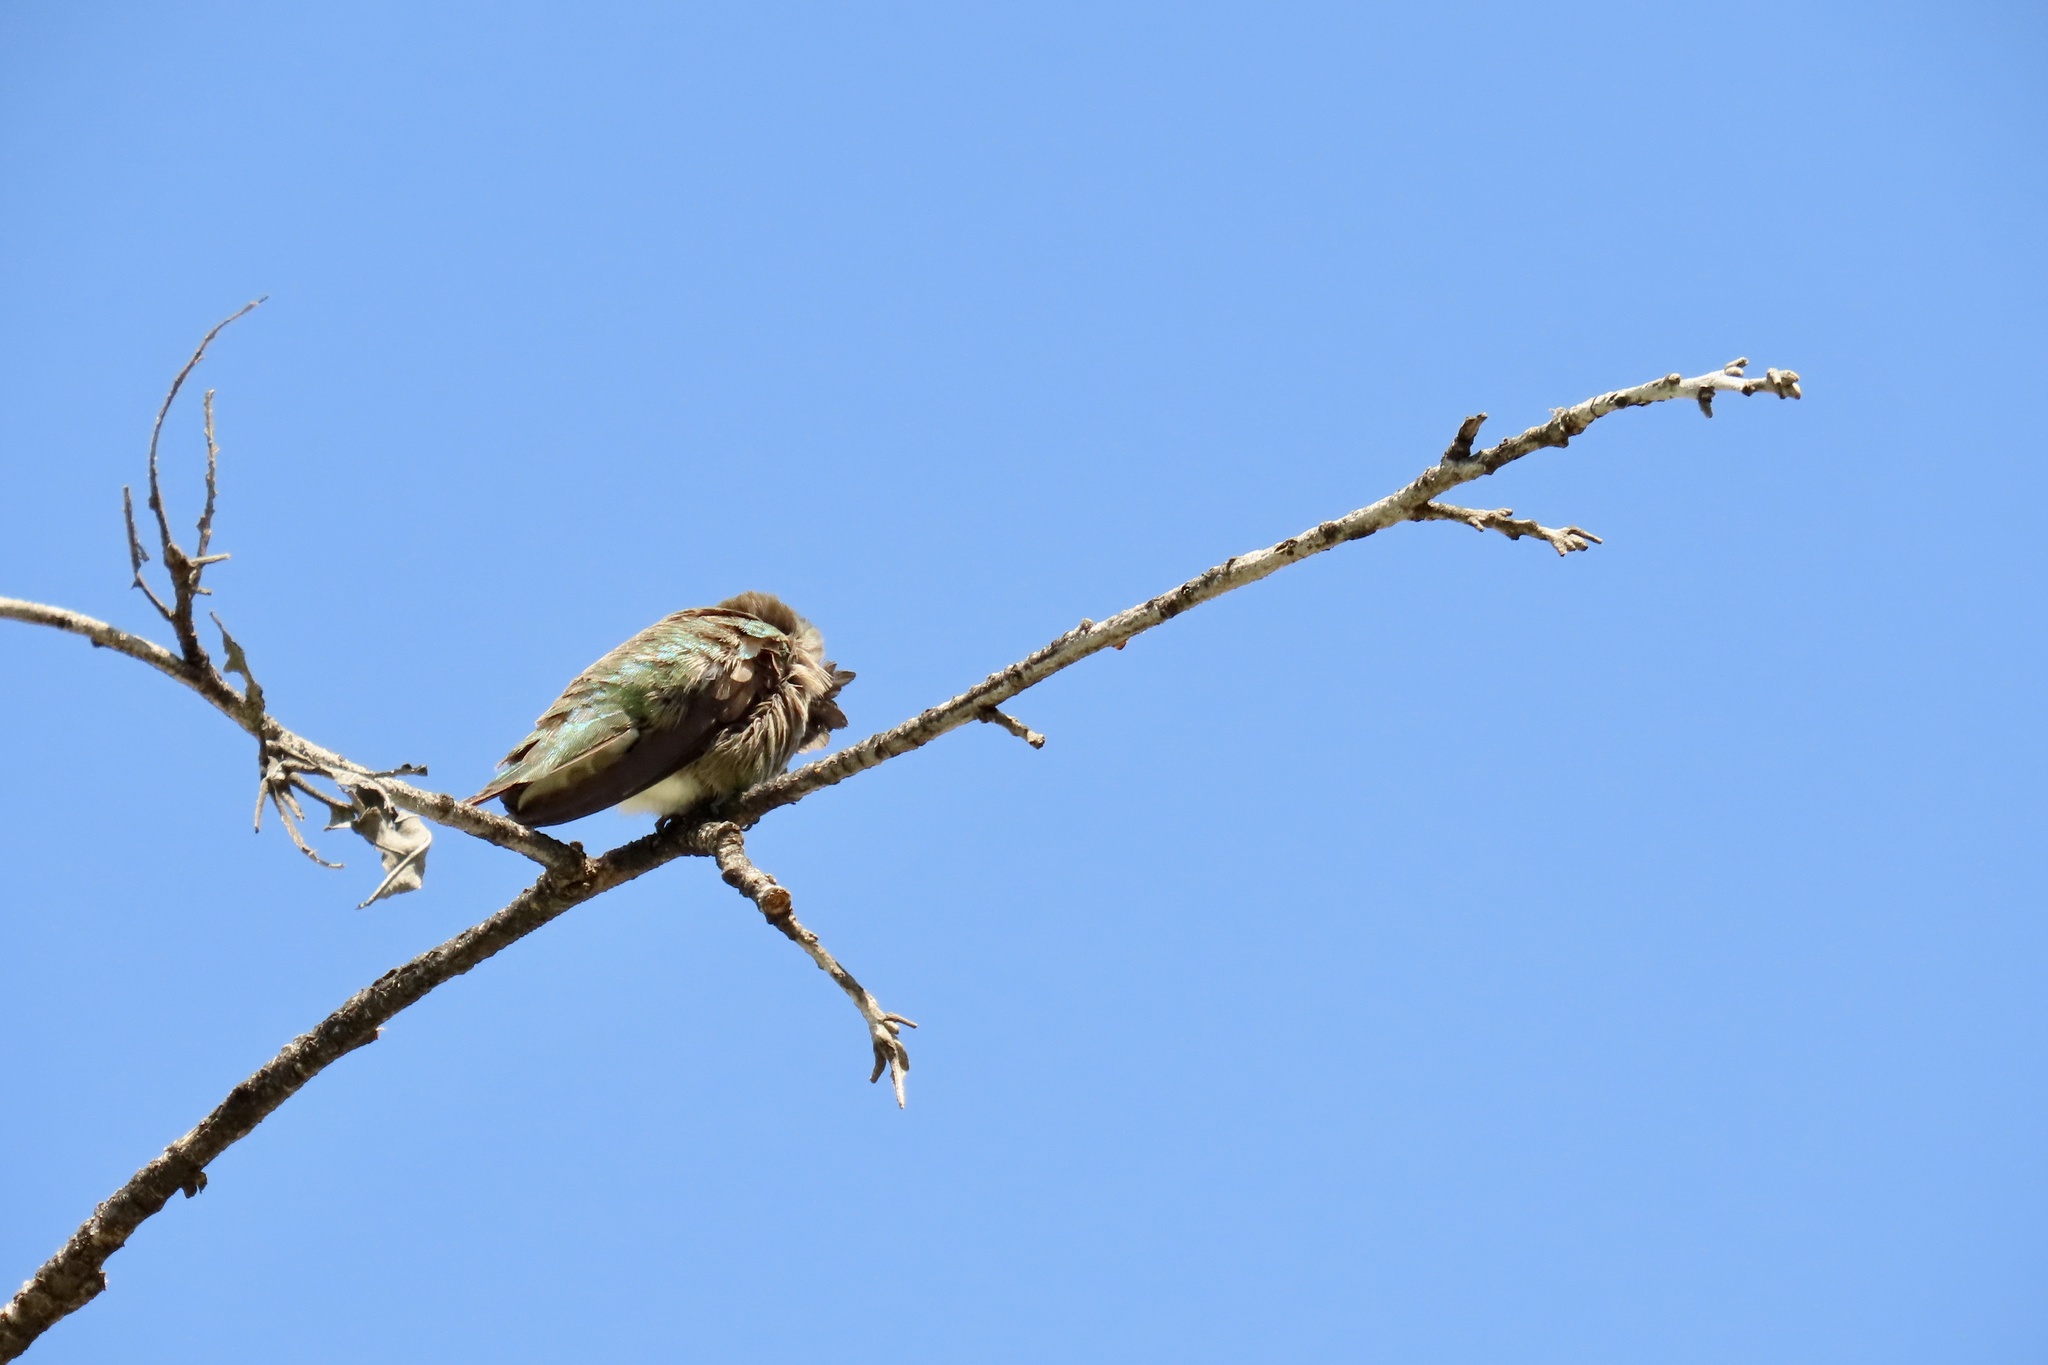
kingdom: Animalia
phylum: Chordata
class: Aves
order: Apodiformes
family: Trochilidae
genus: Calypte
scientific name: Calypte anna
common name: Anna's hummingbird
